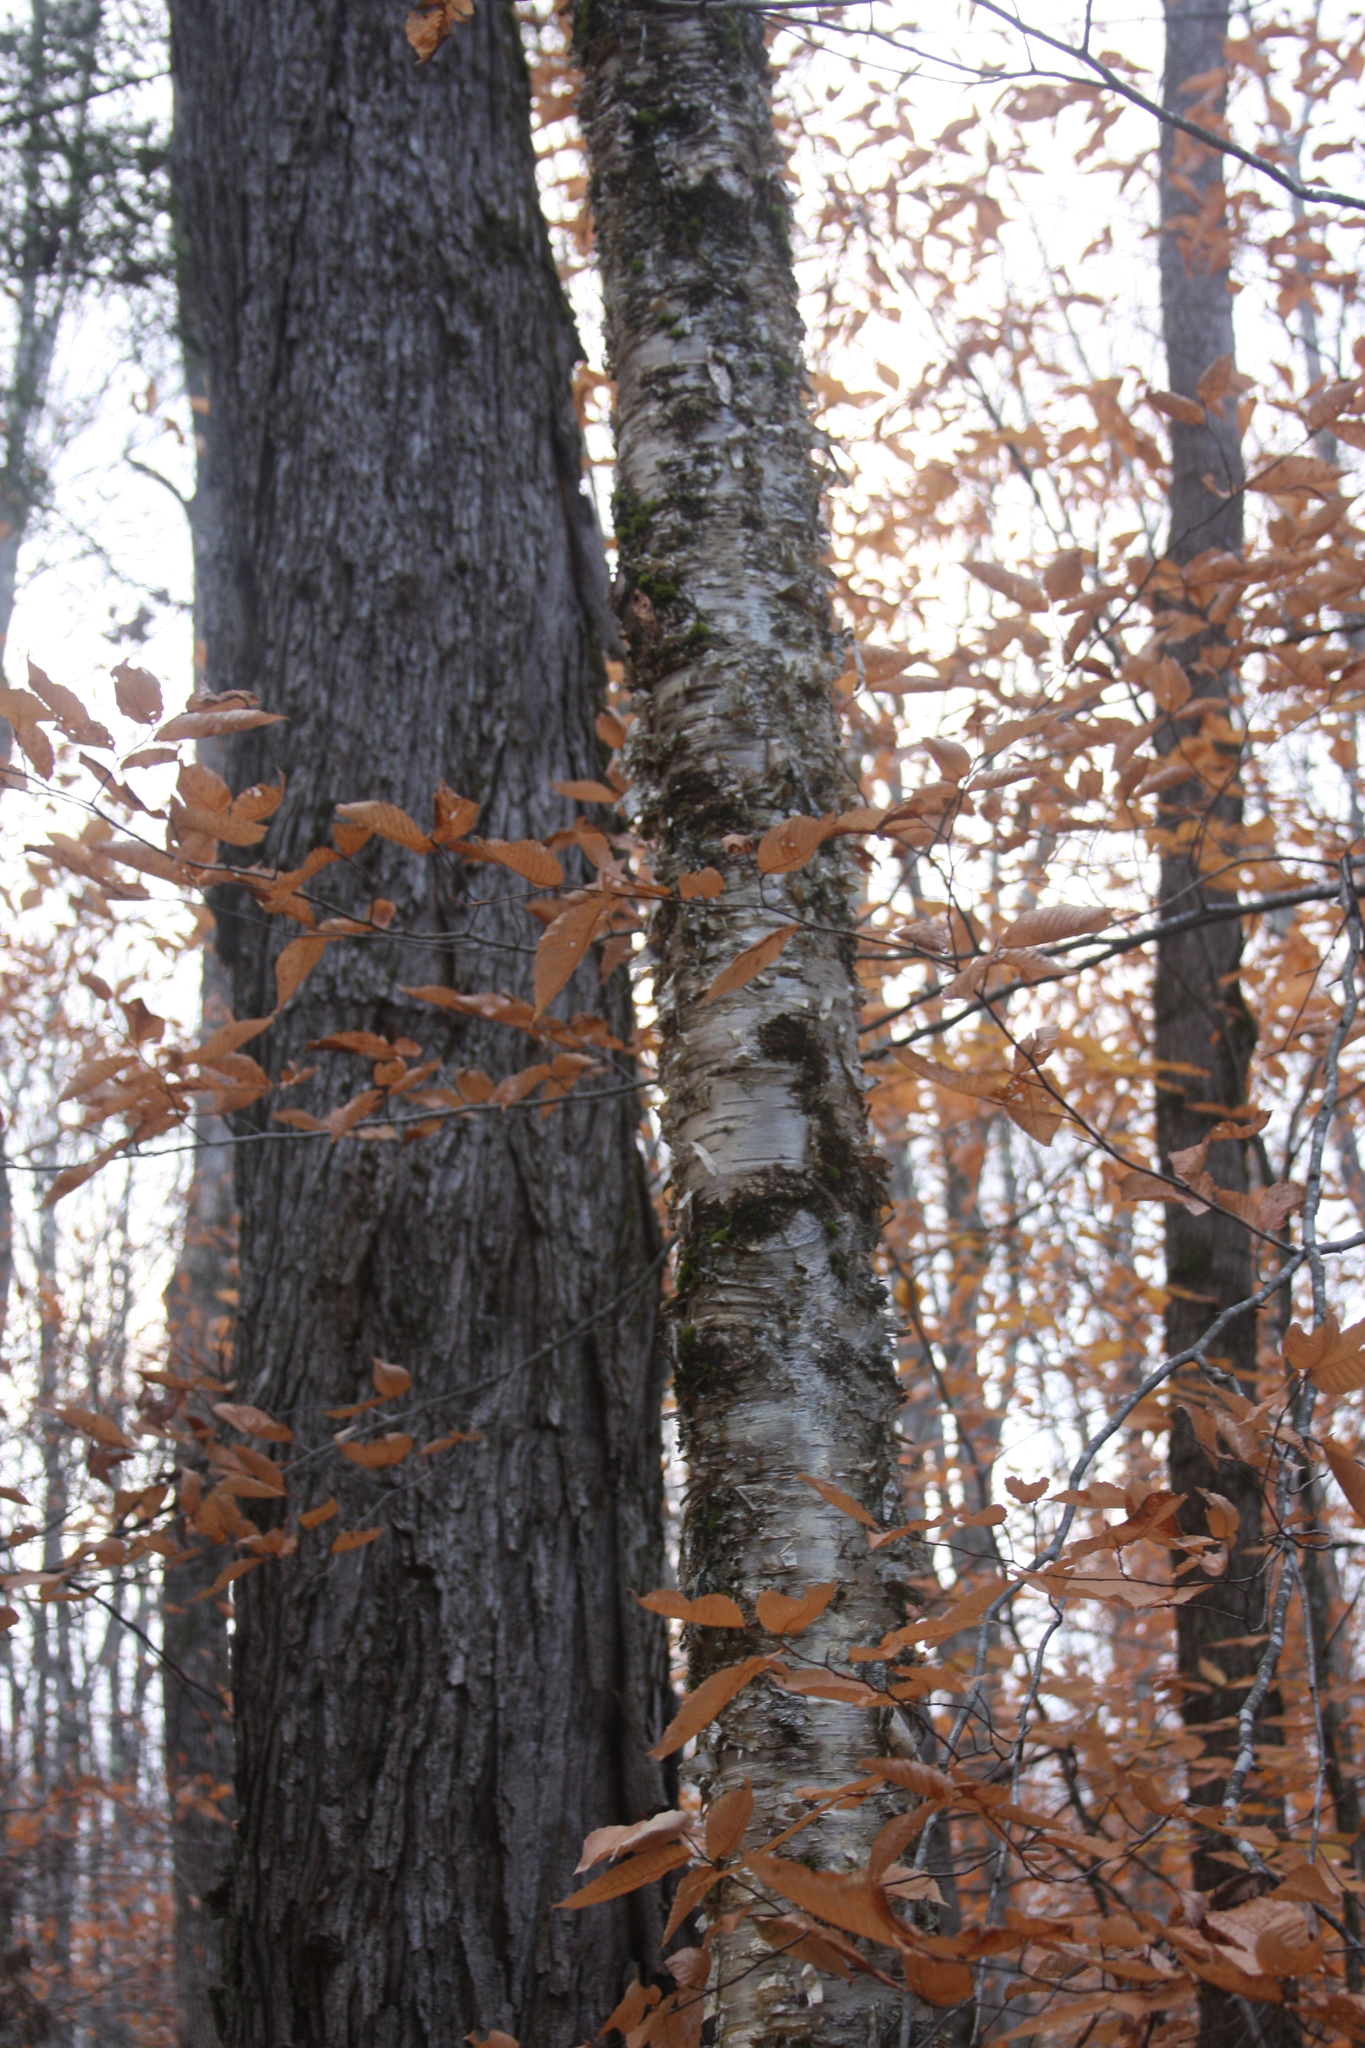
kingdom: Plantae
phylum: Tracheophyta
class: Magnoliopsida
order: Fagales
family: Betulaceae
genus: Betula
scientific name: Betula alleghaniensis
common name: Yellow birch
